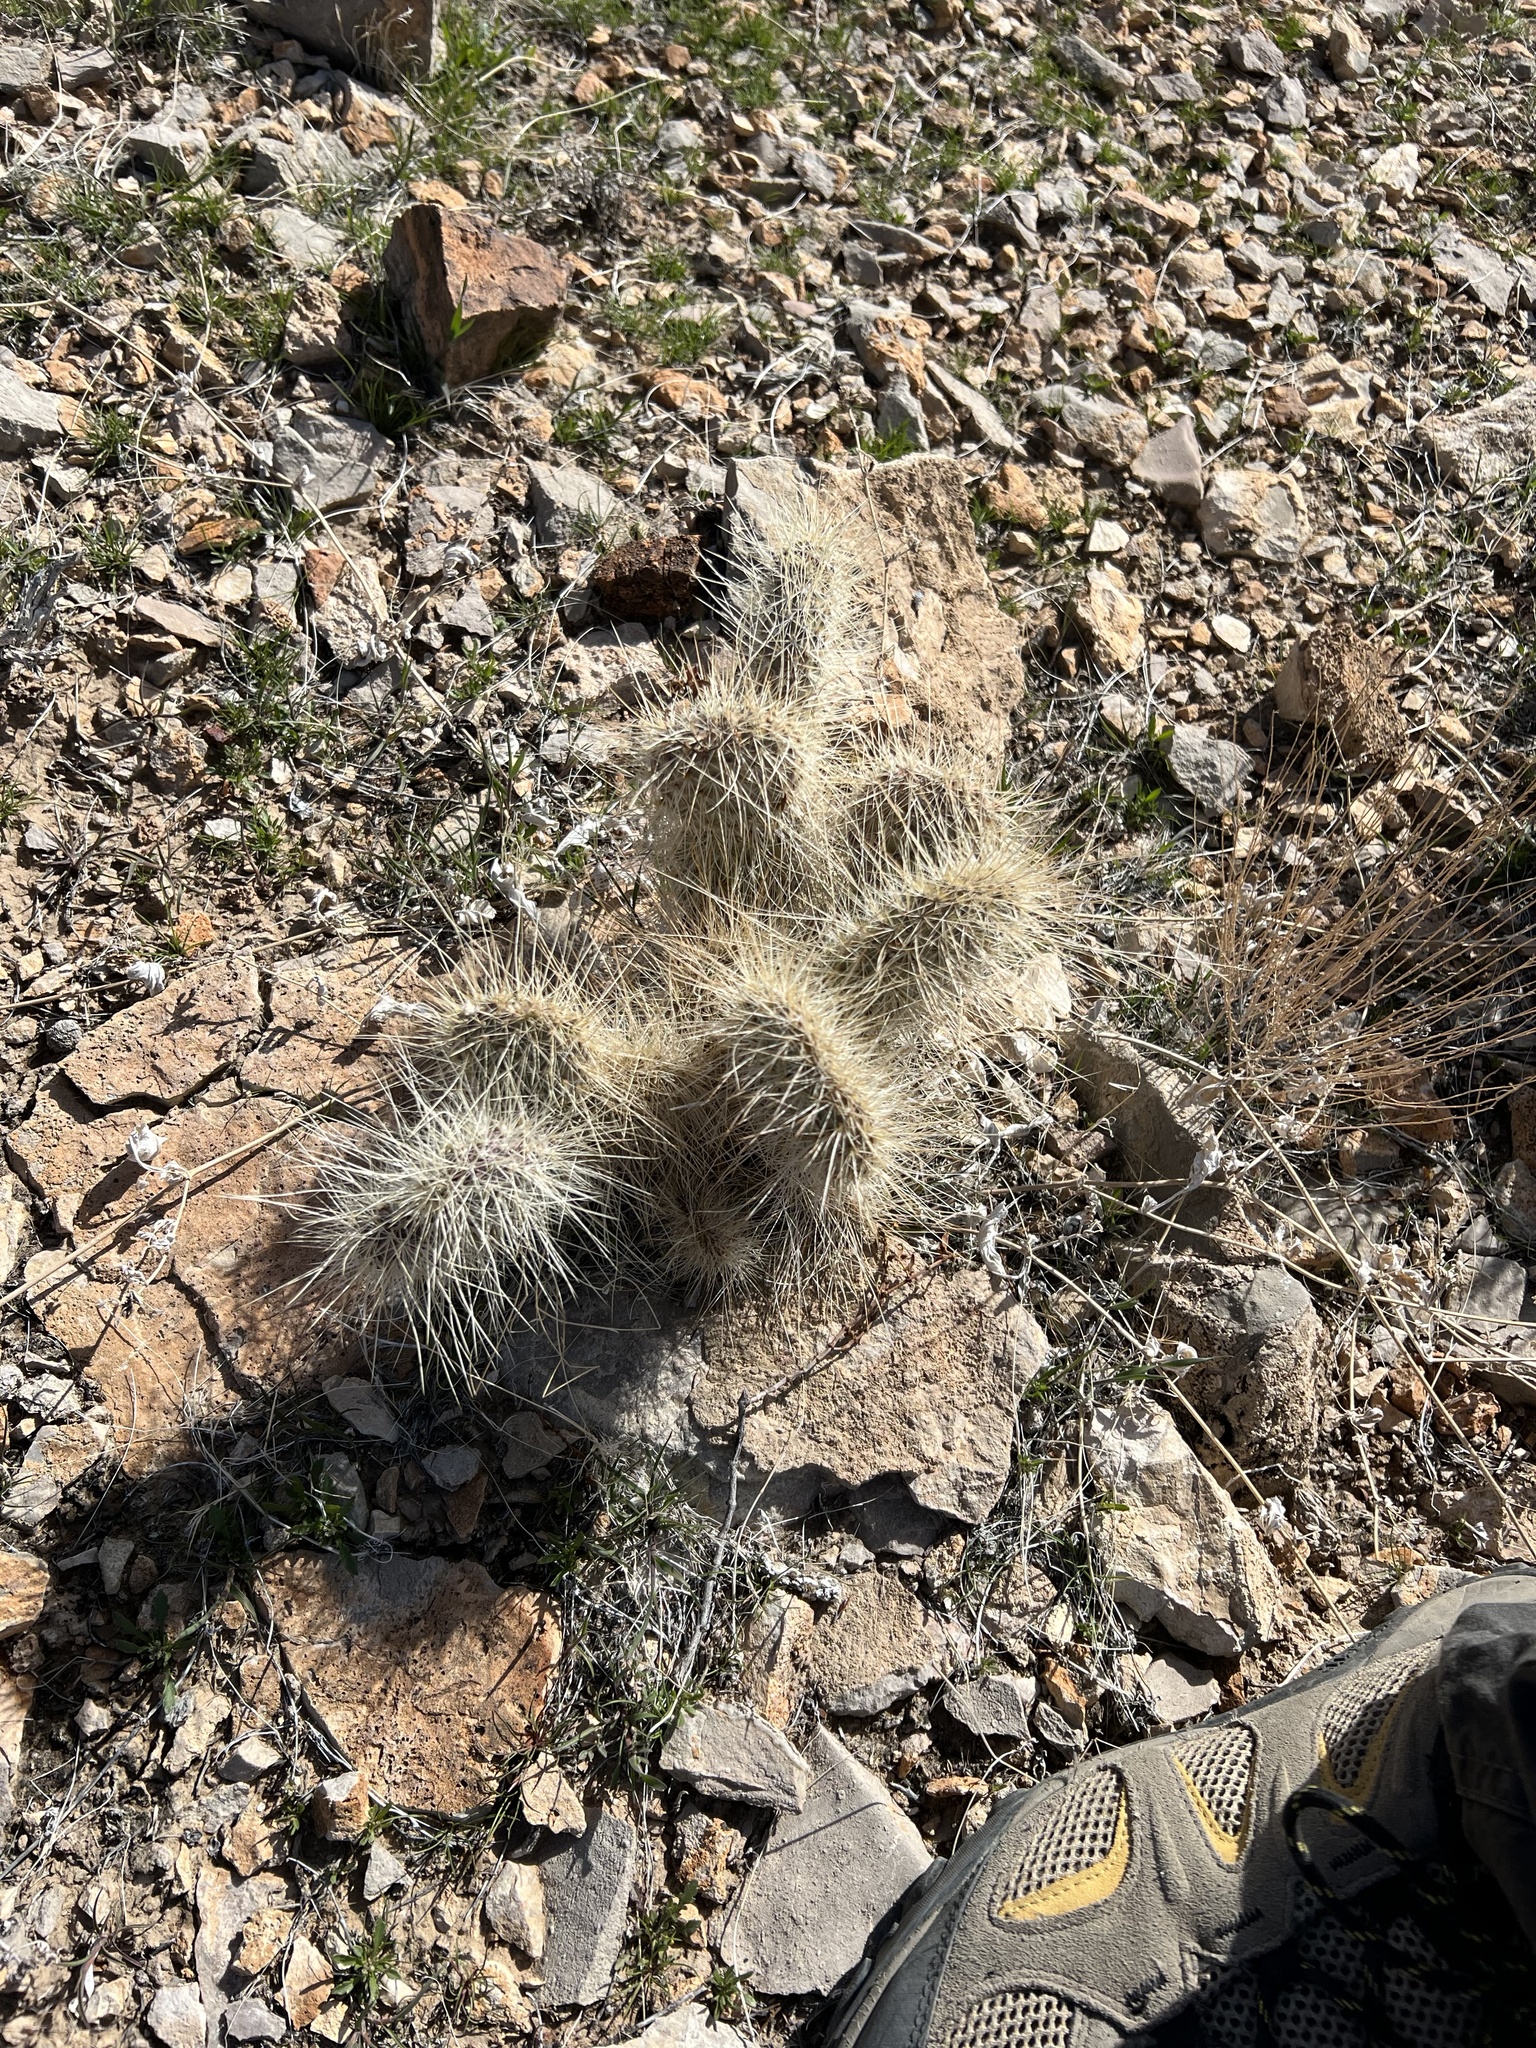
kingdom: Plantae
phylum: Tracheophyta
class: Magnoliopsida
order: Caryophyllales
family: Cactaceae
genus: Opuntia
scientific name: Opuntia polyacantha
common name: Plains prickly-pear
